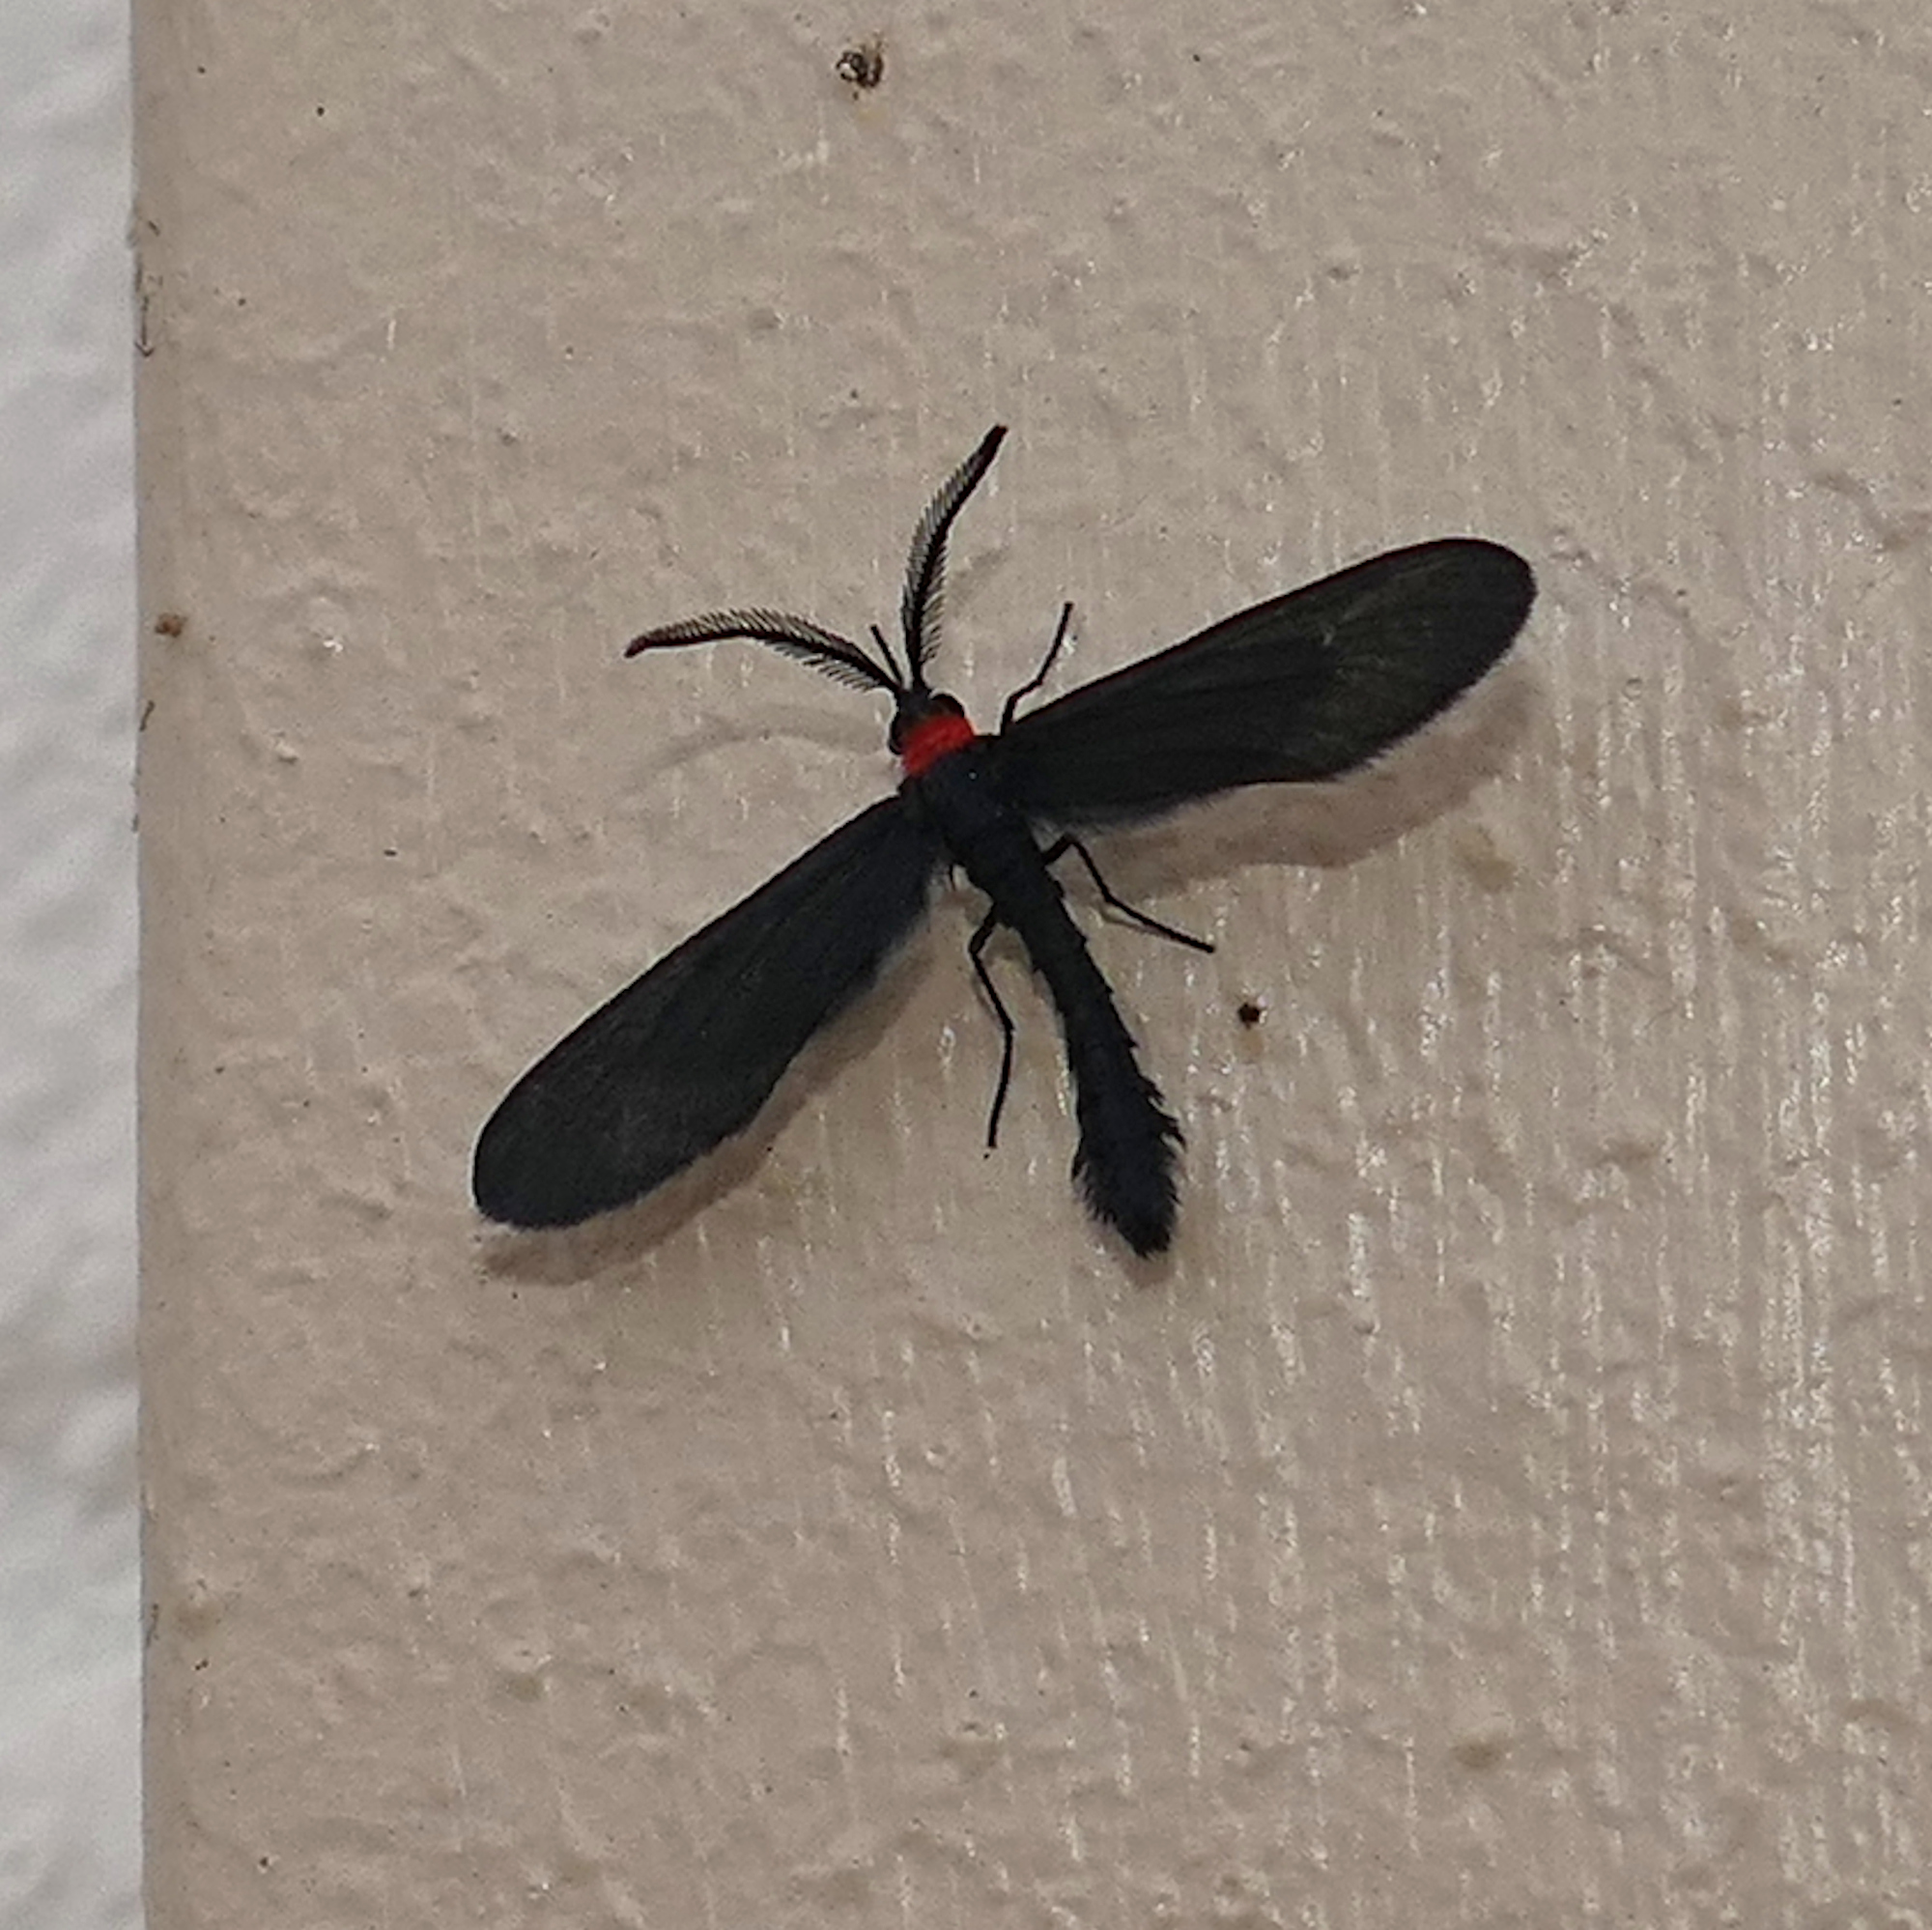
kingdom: Animalia
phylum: Arthropoda
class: Insecta
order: Lepidoptera
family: Zygaenidae
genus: Harrisina
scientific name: Harrisina americana
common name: Grapeleaf skeletonizer moth
